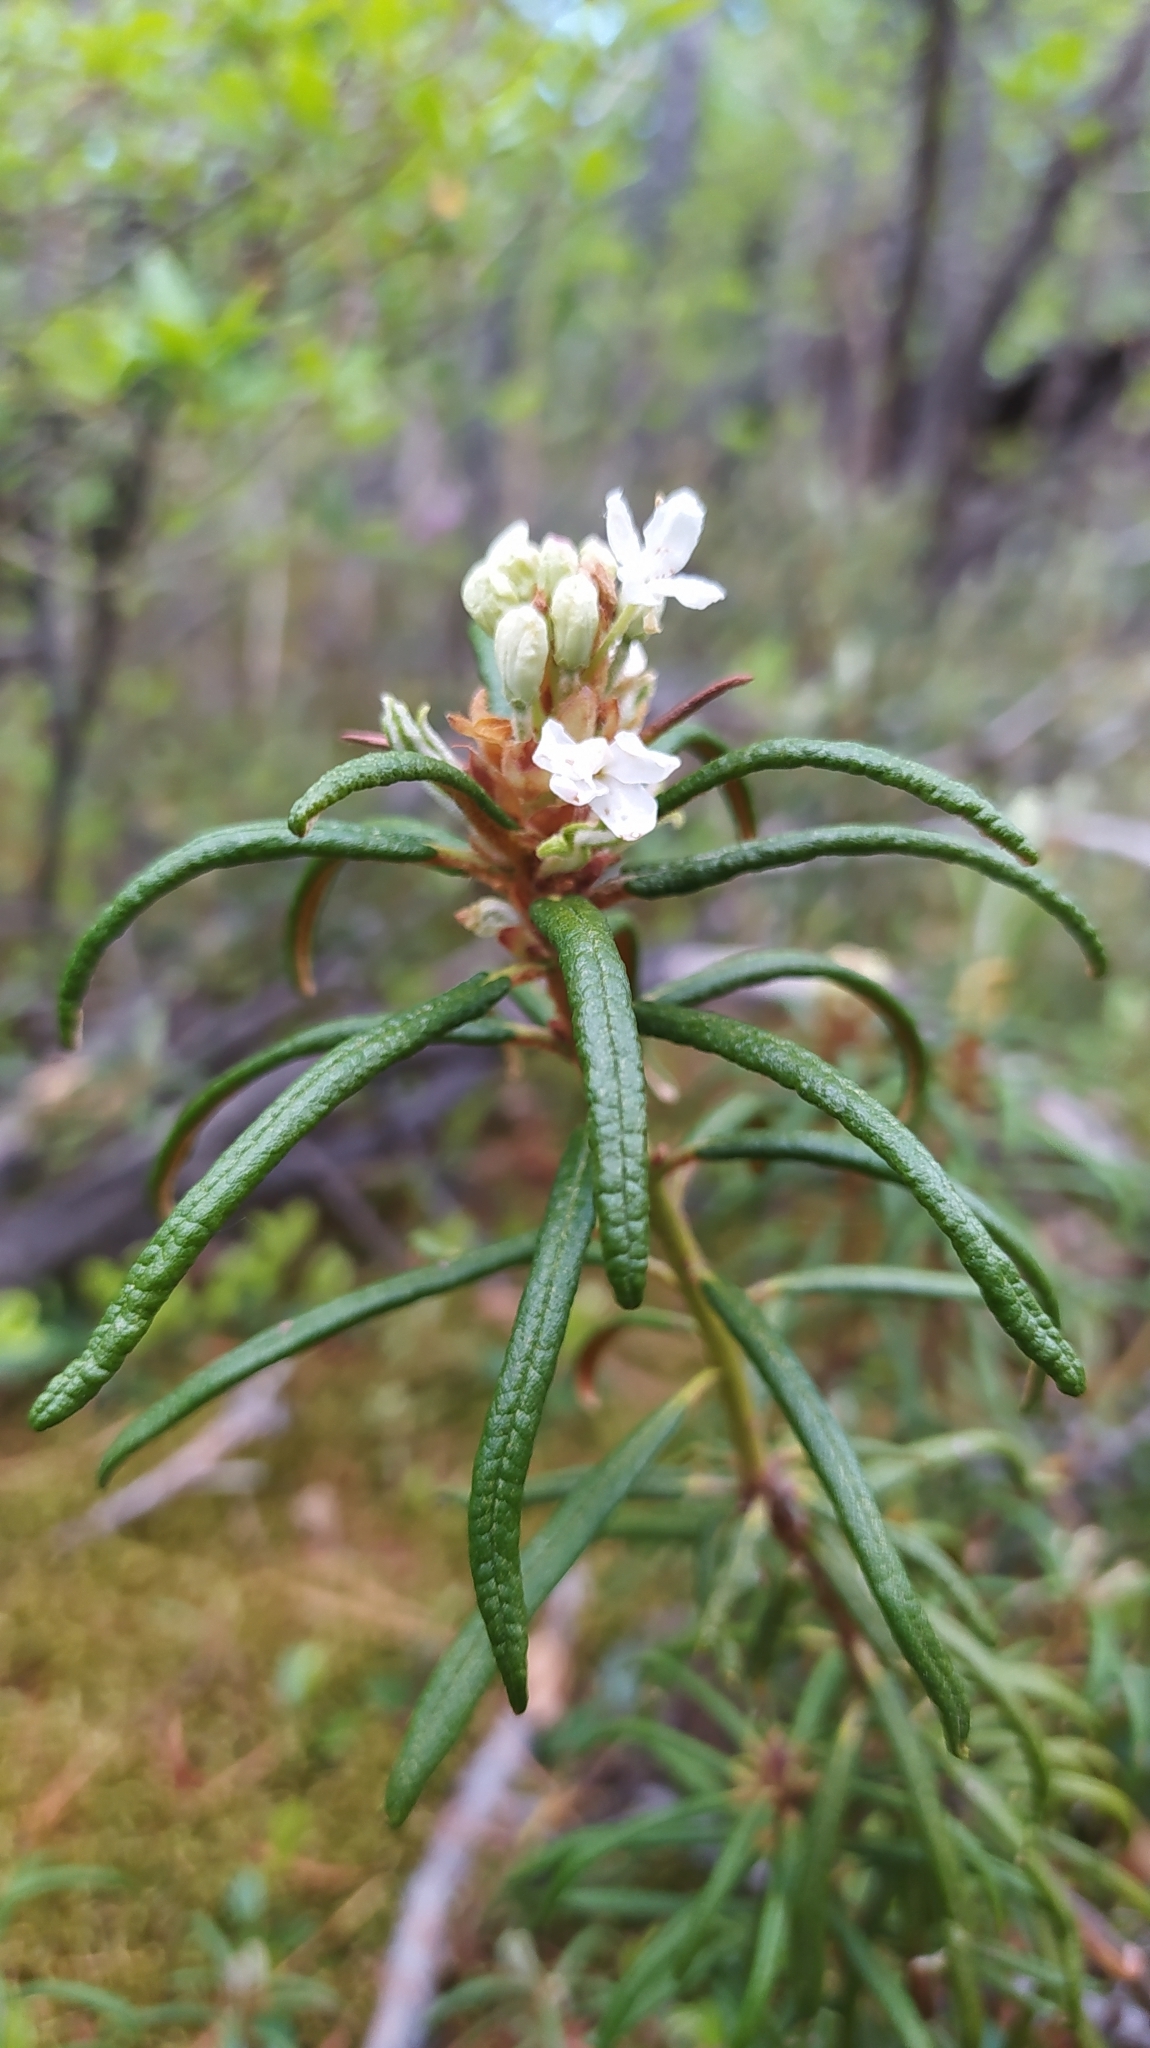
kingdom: Plantae
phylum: Tracheophyta
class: Magnoliopsida
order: Ericales
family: Ericaceae
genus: Rhododendron
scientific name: Rhododendron tomentosum
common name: Marsh labrador tea
